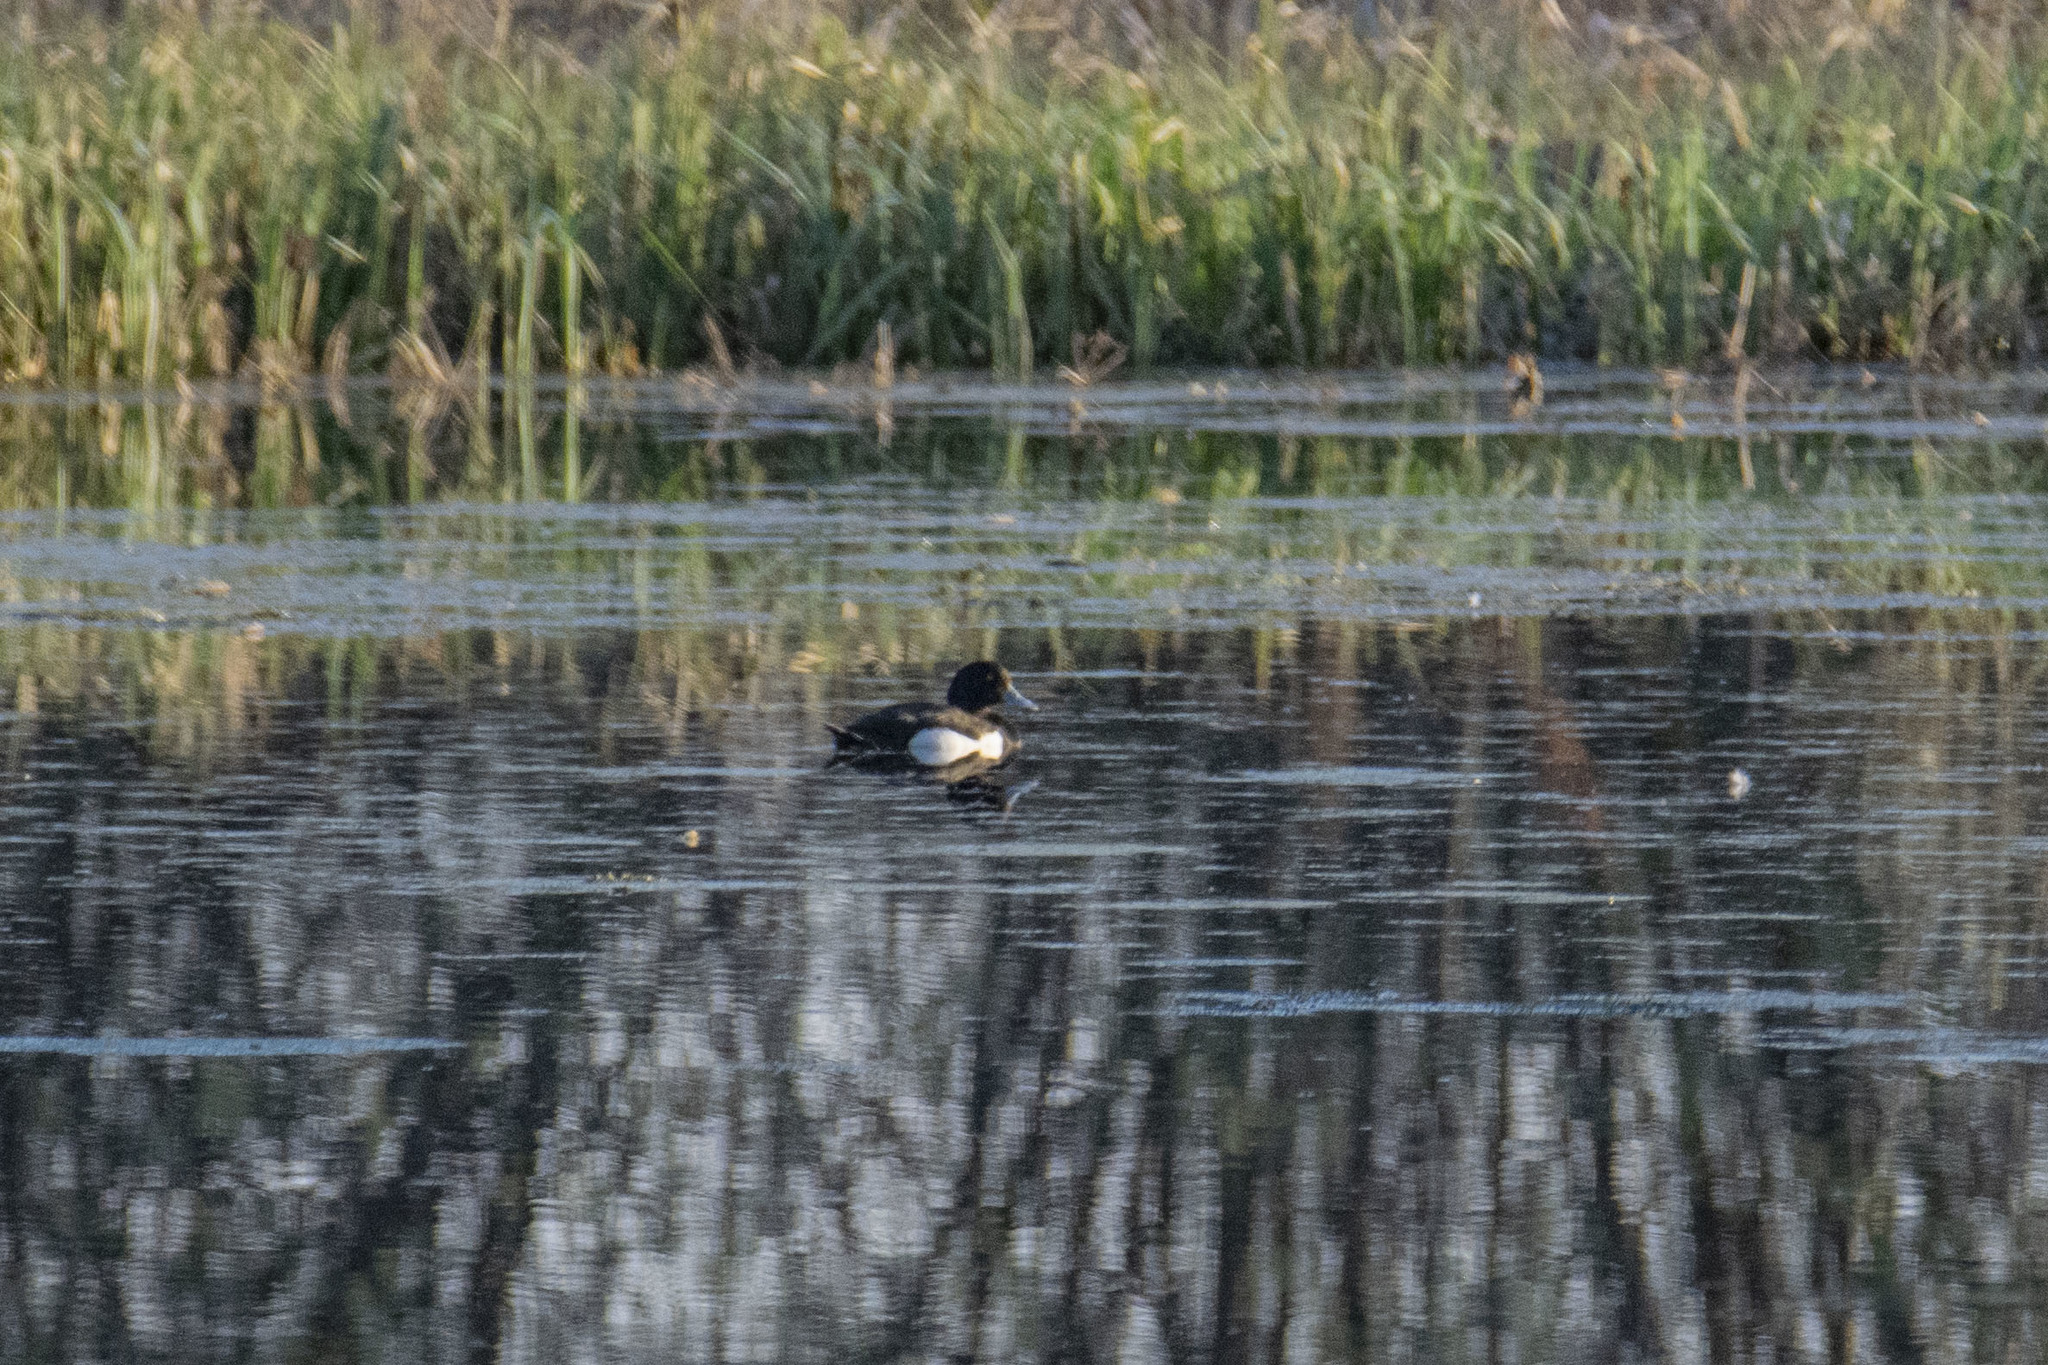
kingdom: Animalia
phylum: Chordata
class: Aves
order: Anseriformes
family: Anatidae
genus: Aythya
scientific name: Aythya fuligula
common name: Tufted duck
